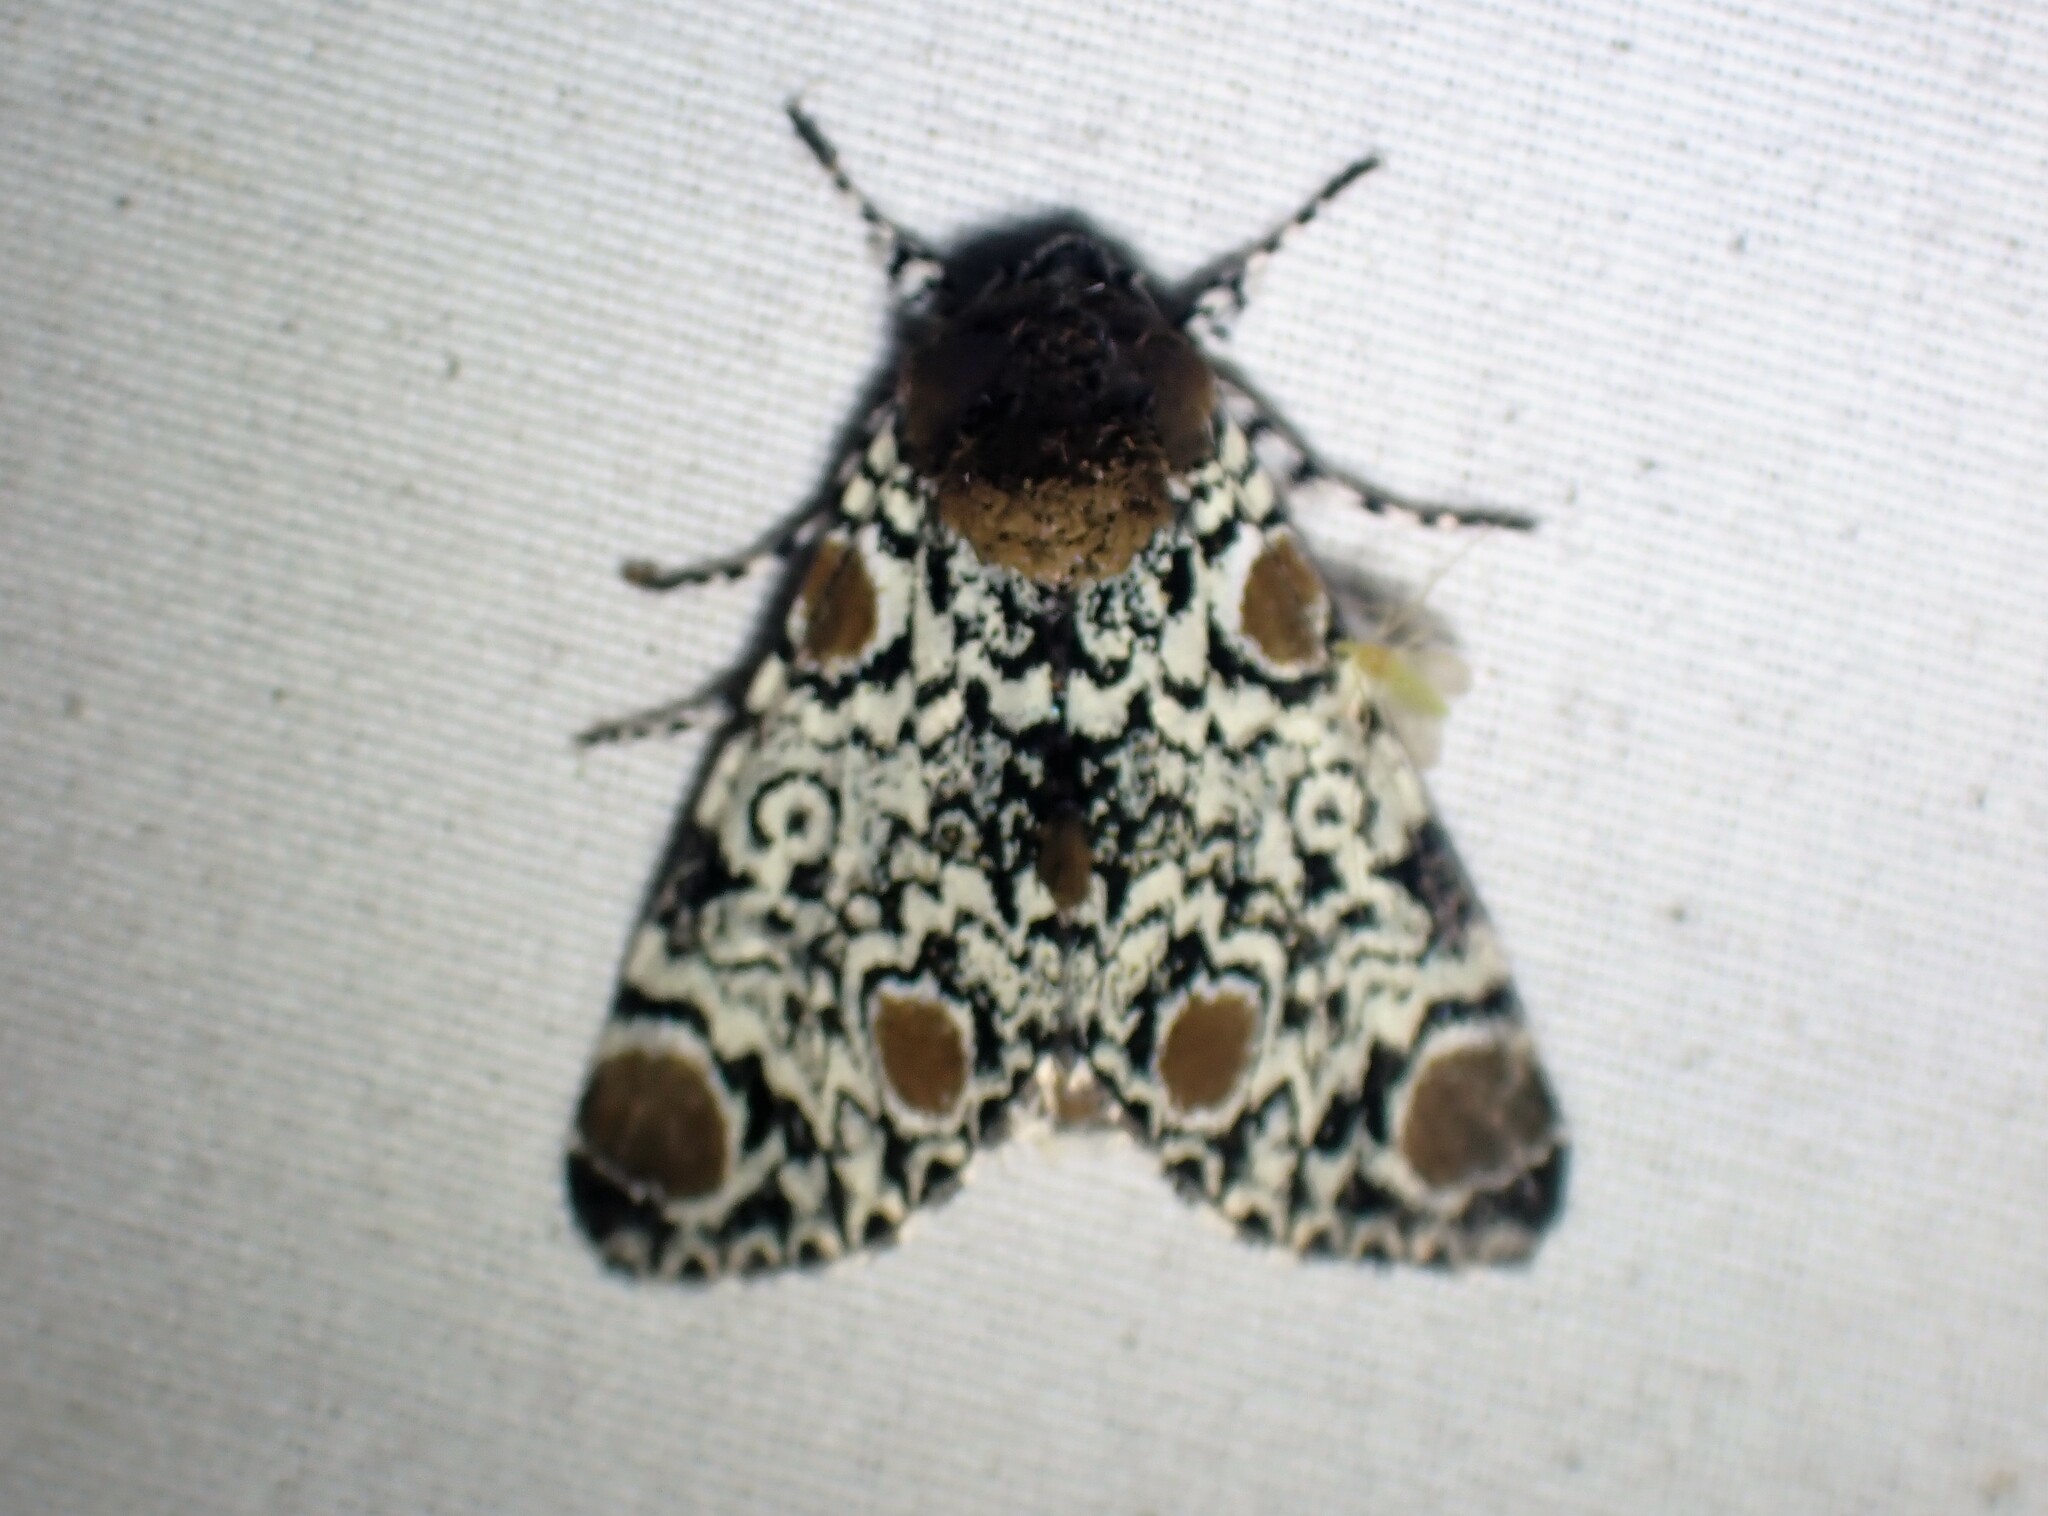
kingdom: Animalia
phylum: Arthropoda
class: Insecta
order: Lepidoptera
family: Noctuidae
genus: Harrisimemna
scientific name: Harrisimemna trisignata
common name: Harris threespot
